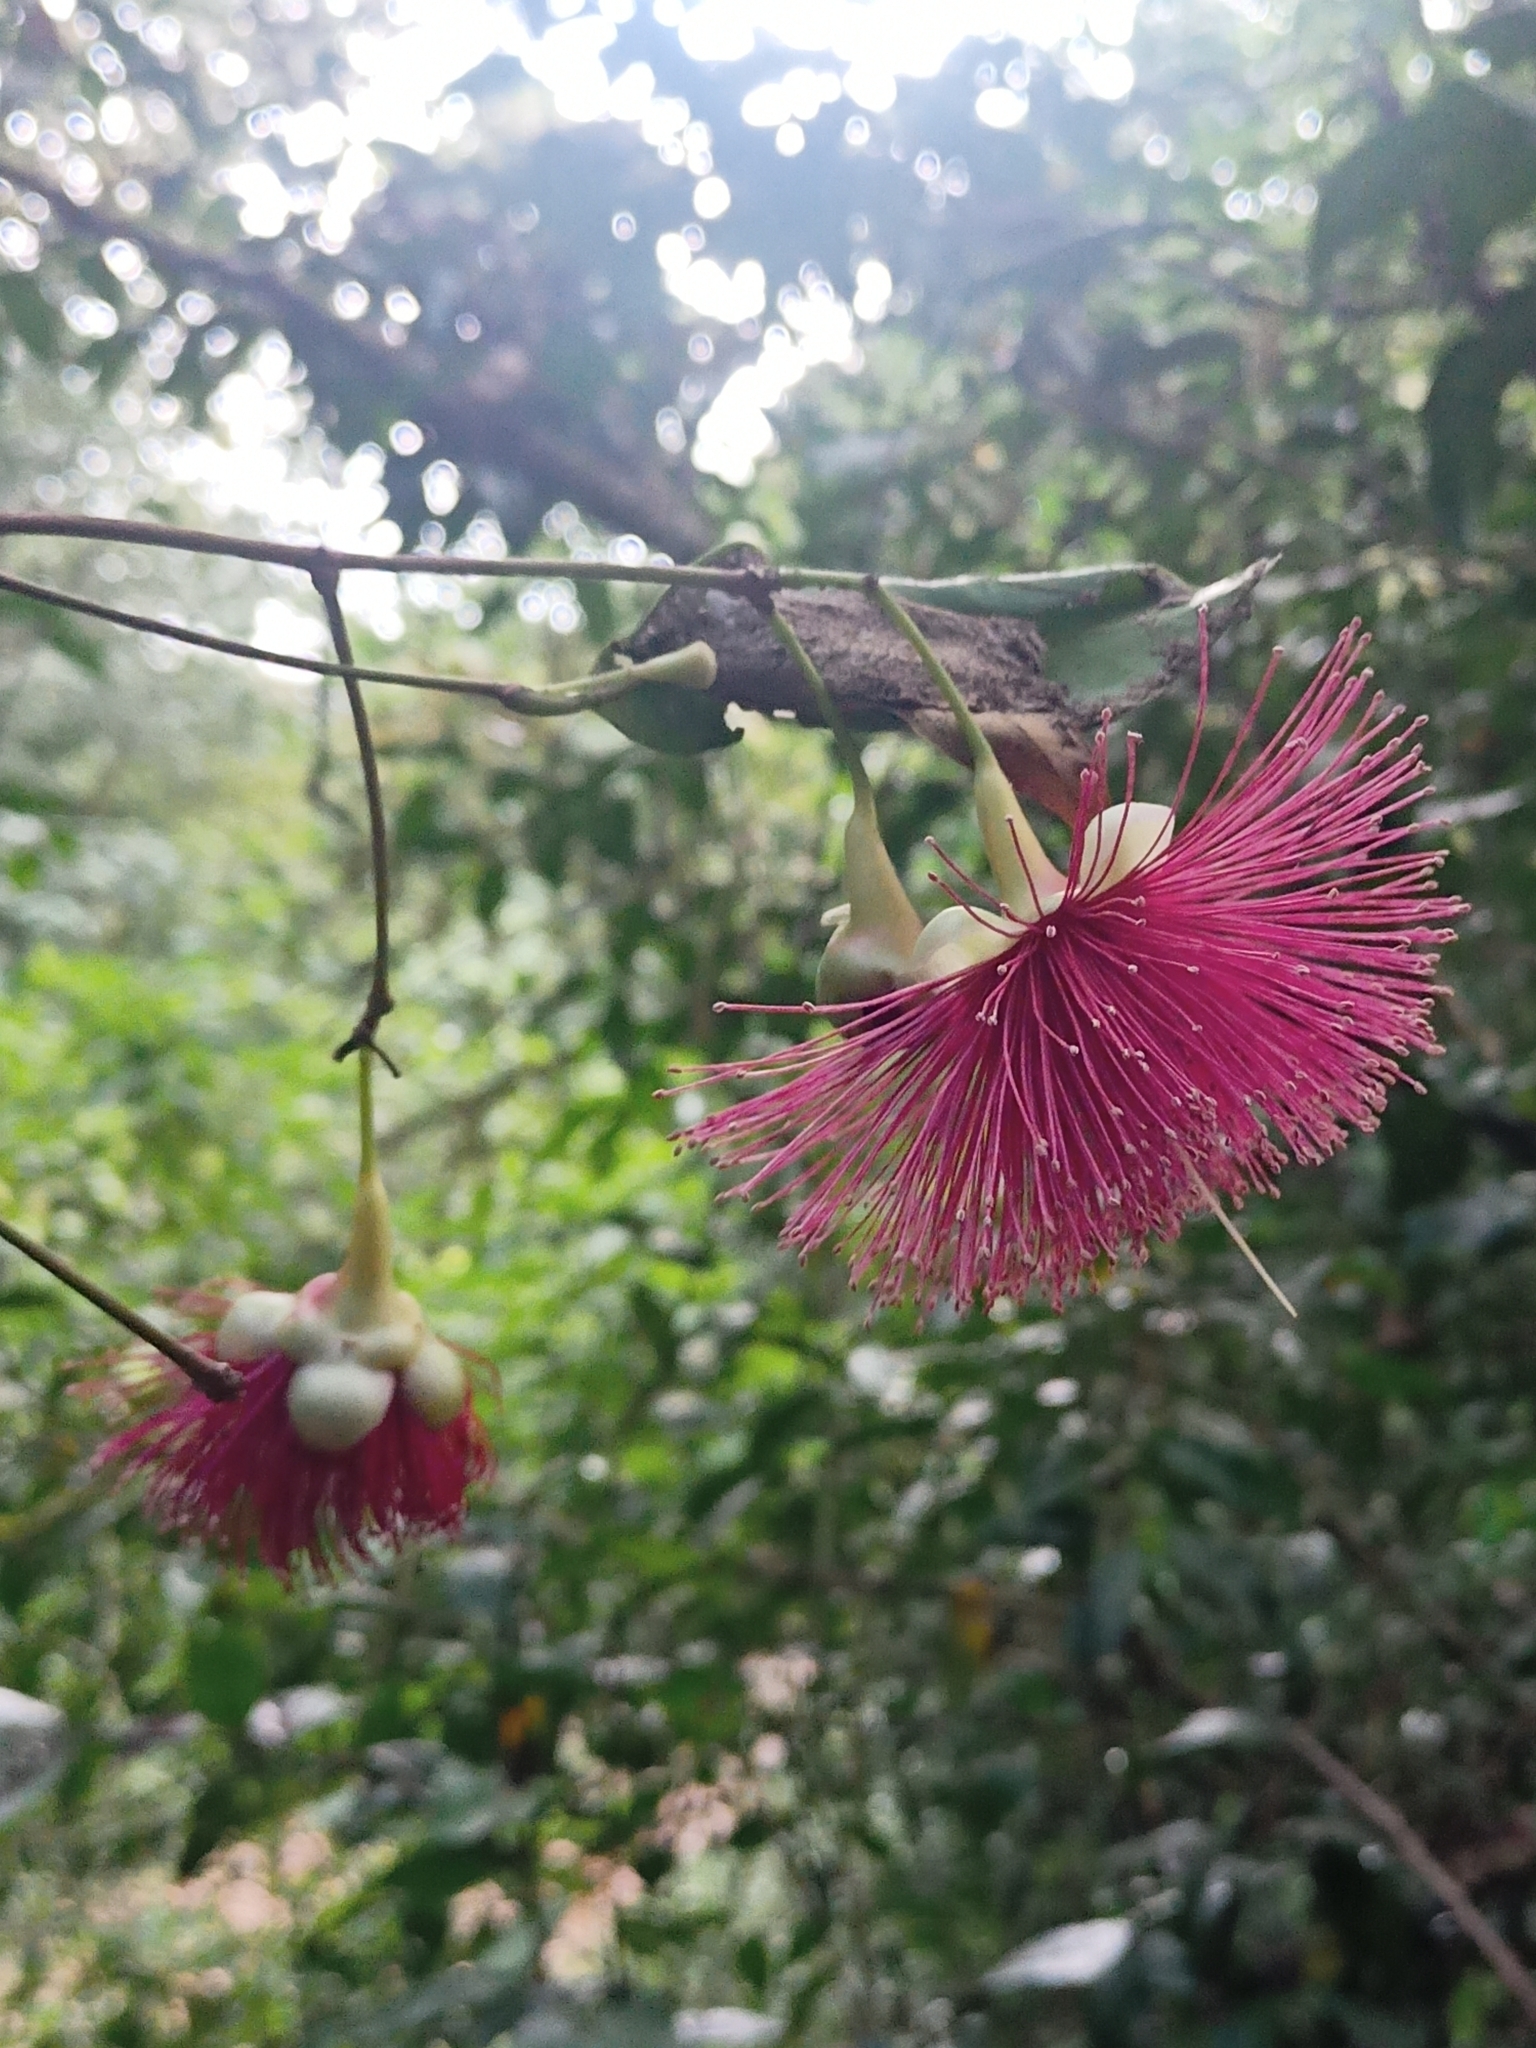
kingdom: Plantae
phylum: Tracheophyta
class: Magnoliopsida
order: Myrtales
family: Myrtaceae
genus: Syzygium
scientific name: Syzygium laetum
